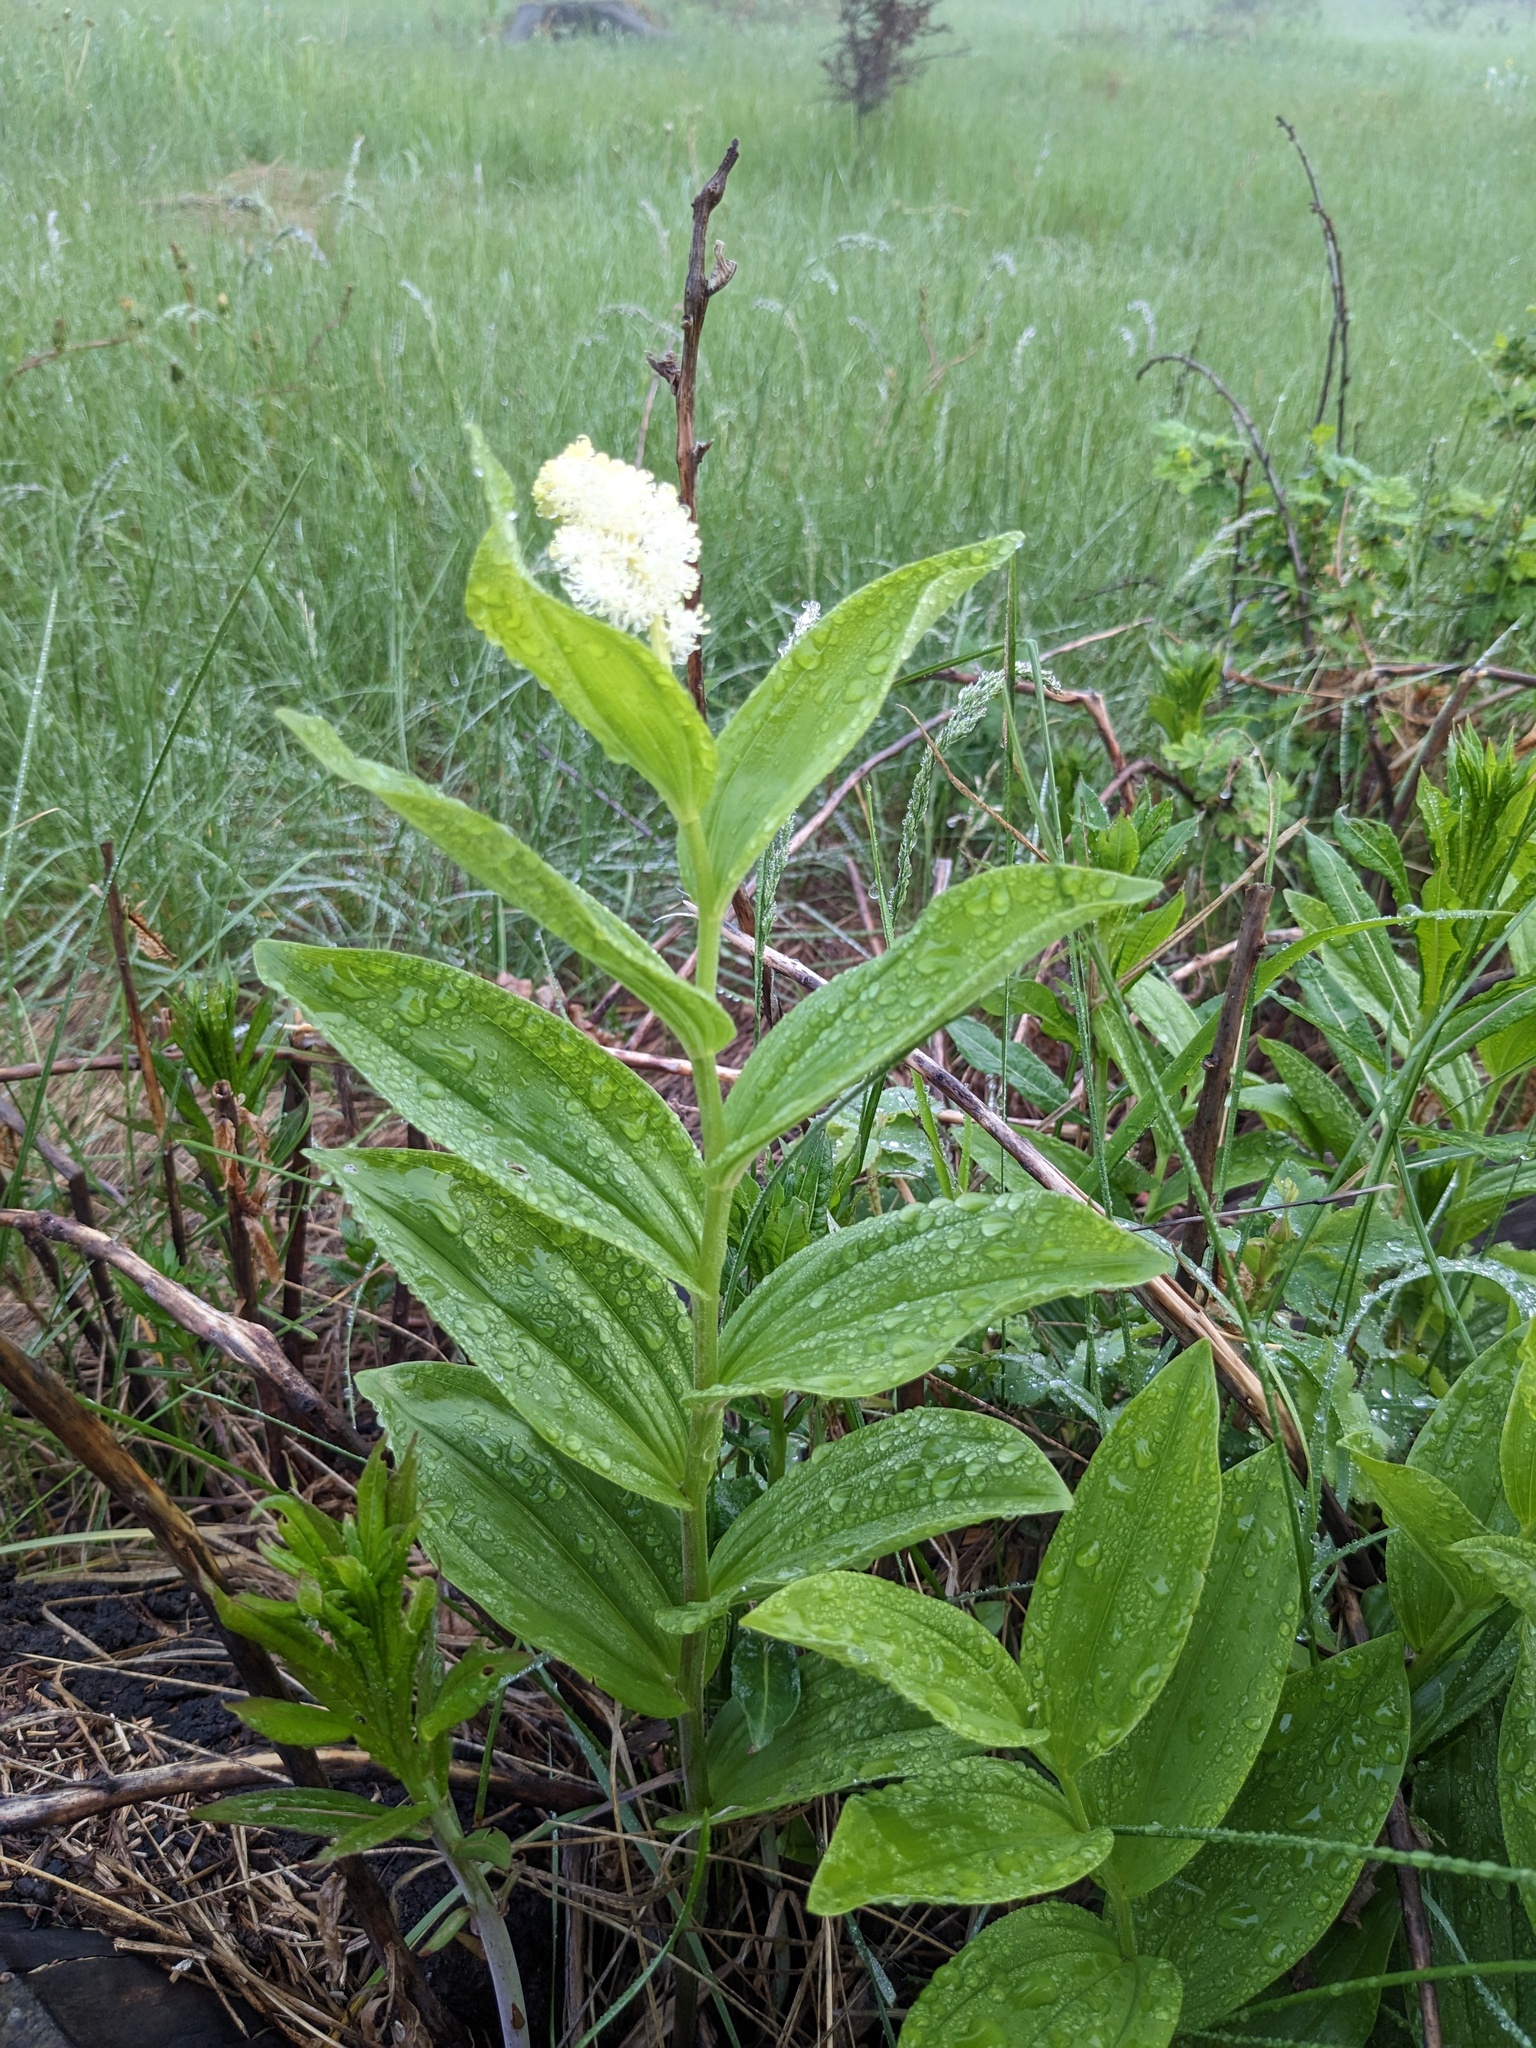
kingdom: Plantae
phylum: Tracheophyta
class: Liliopsida
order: Asparagales
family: Asparagaceae
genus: Maianthemum
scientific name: Maianthemum racemosum
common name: False spikenard
